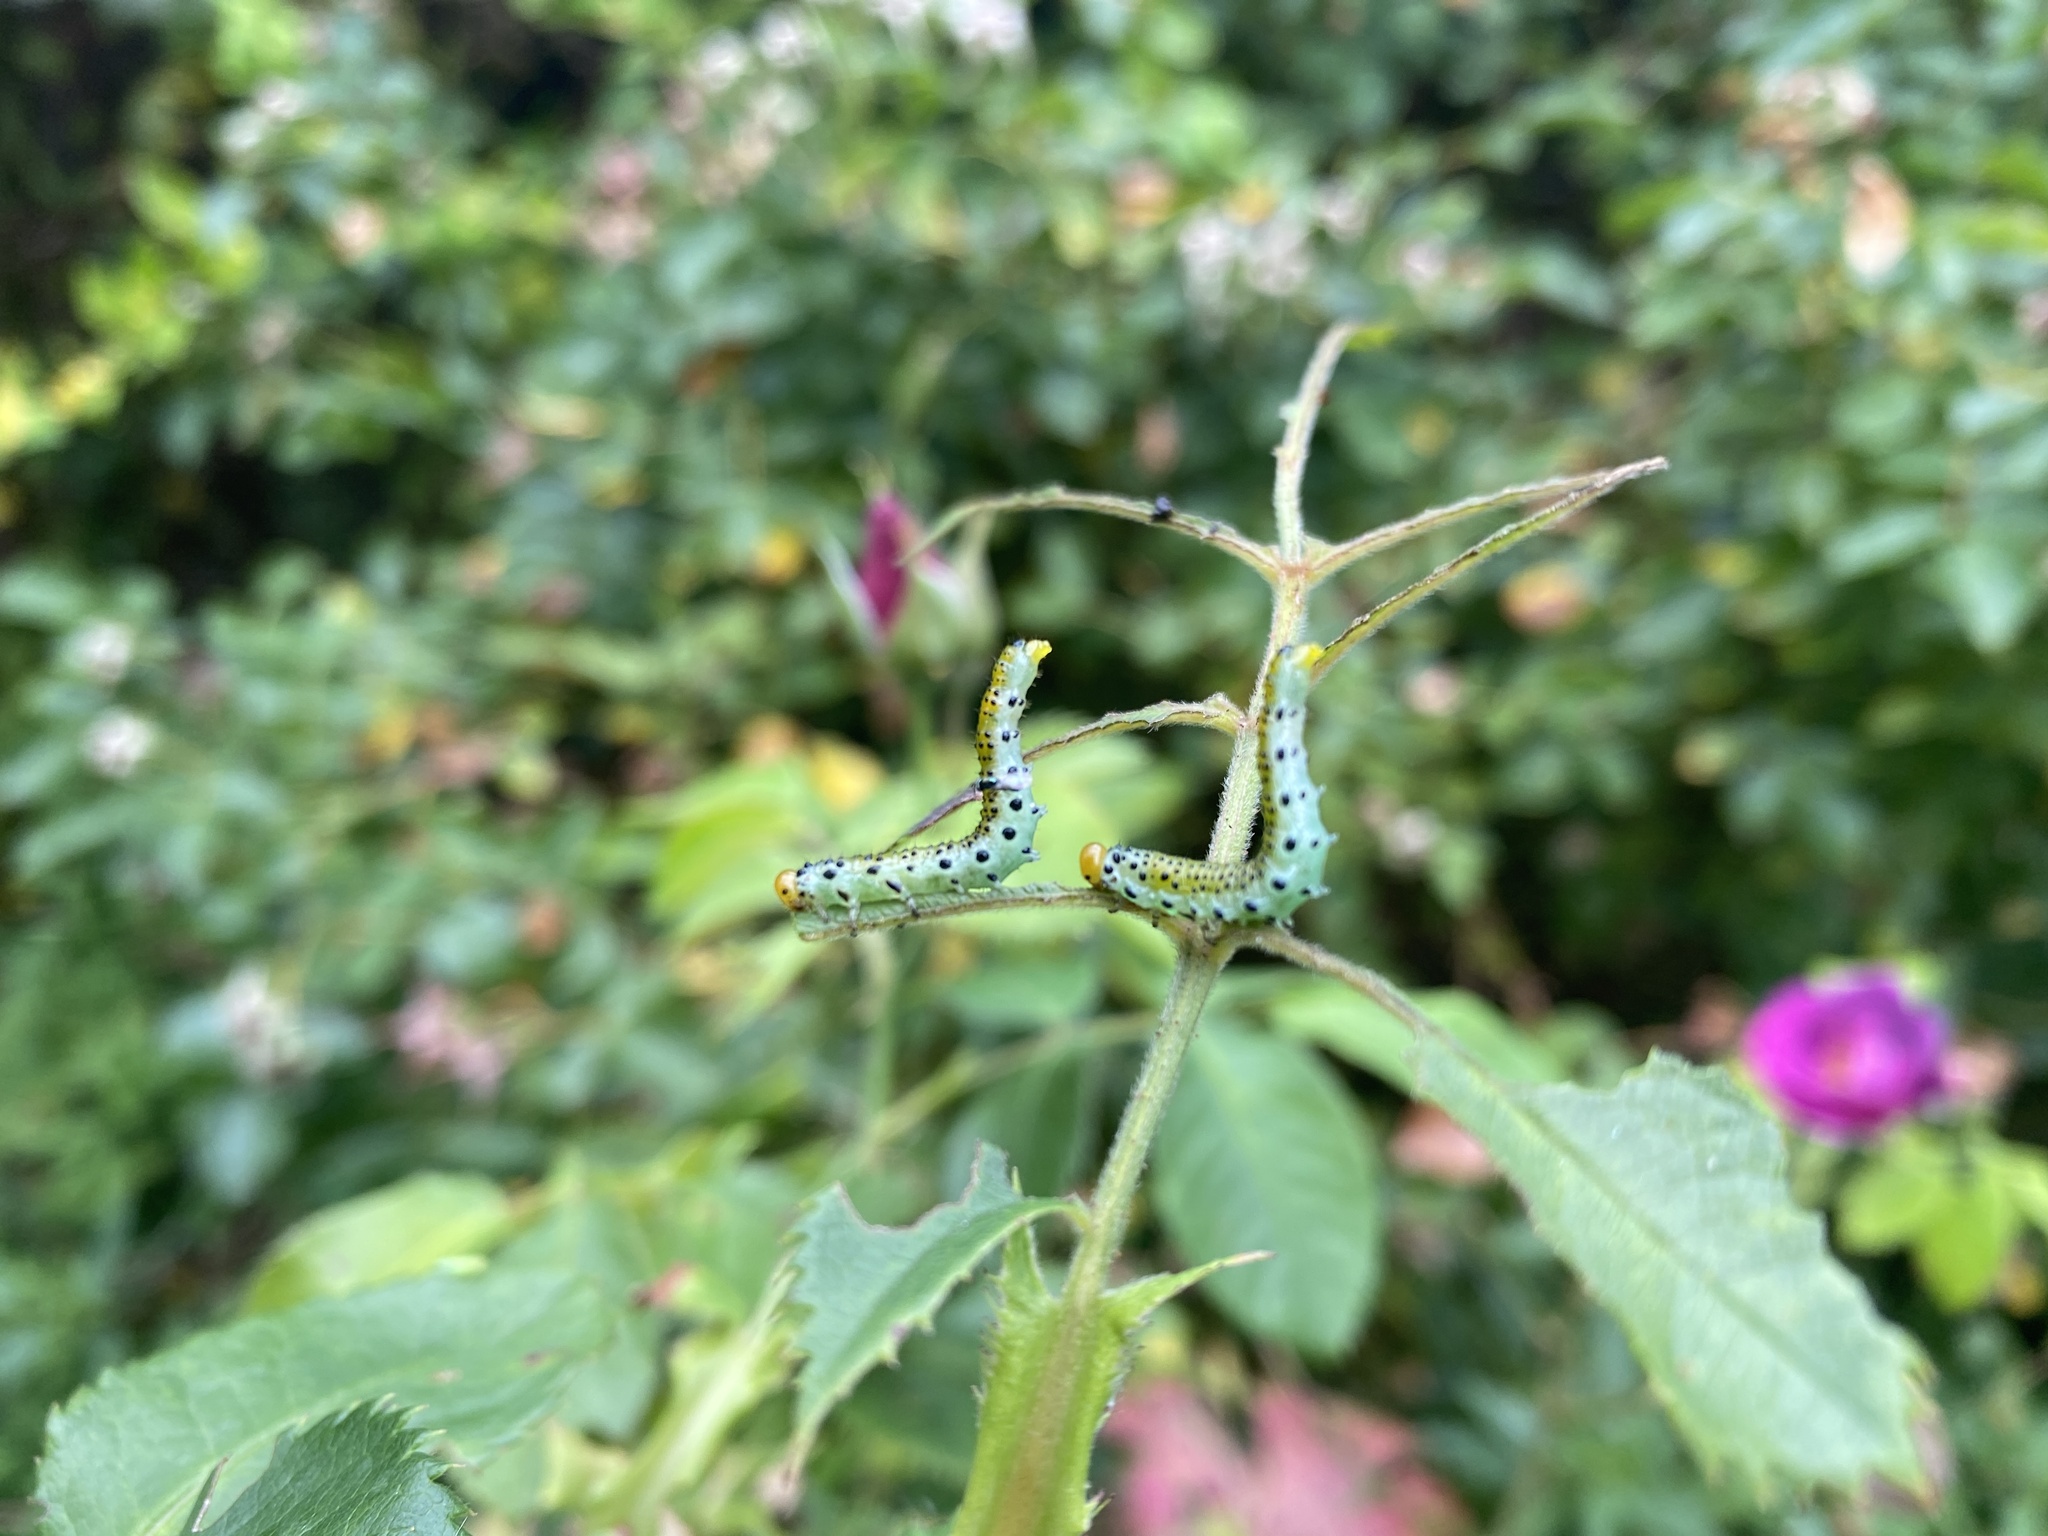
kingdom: Animalia
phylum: Arthropoda
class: Insecta
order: Hymenoptera
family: Argidae
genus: Arge
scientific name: Arge pagana
